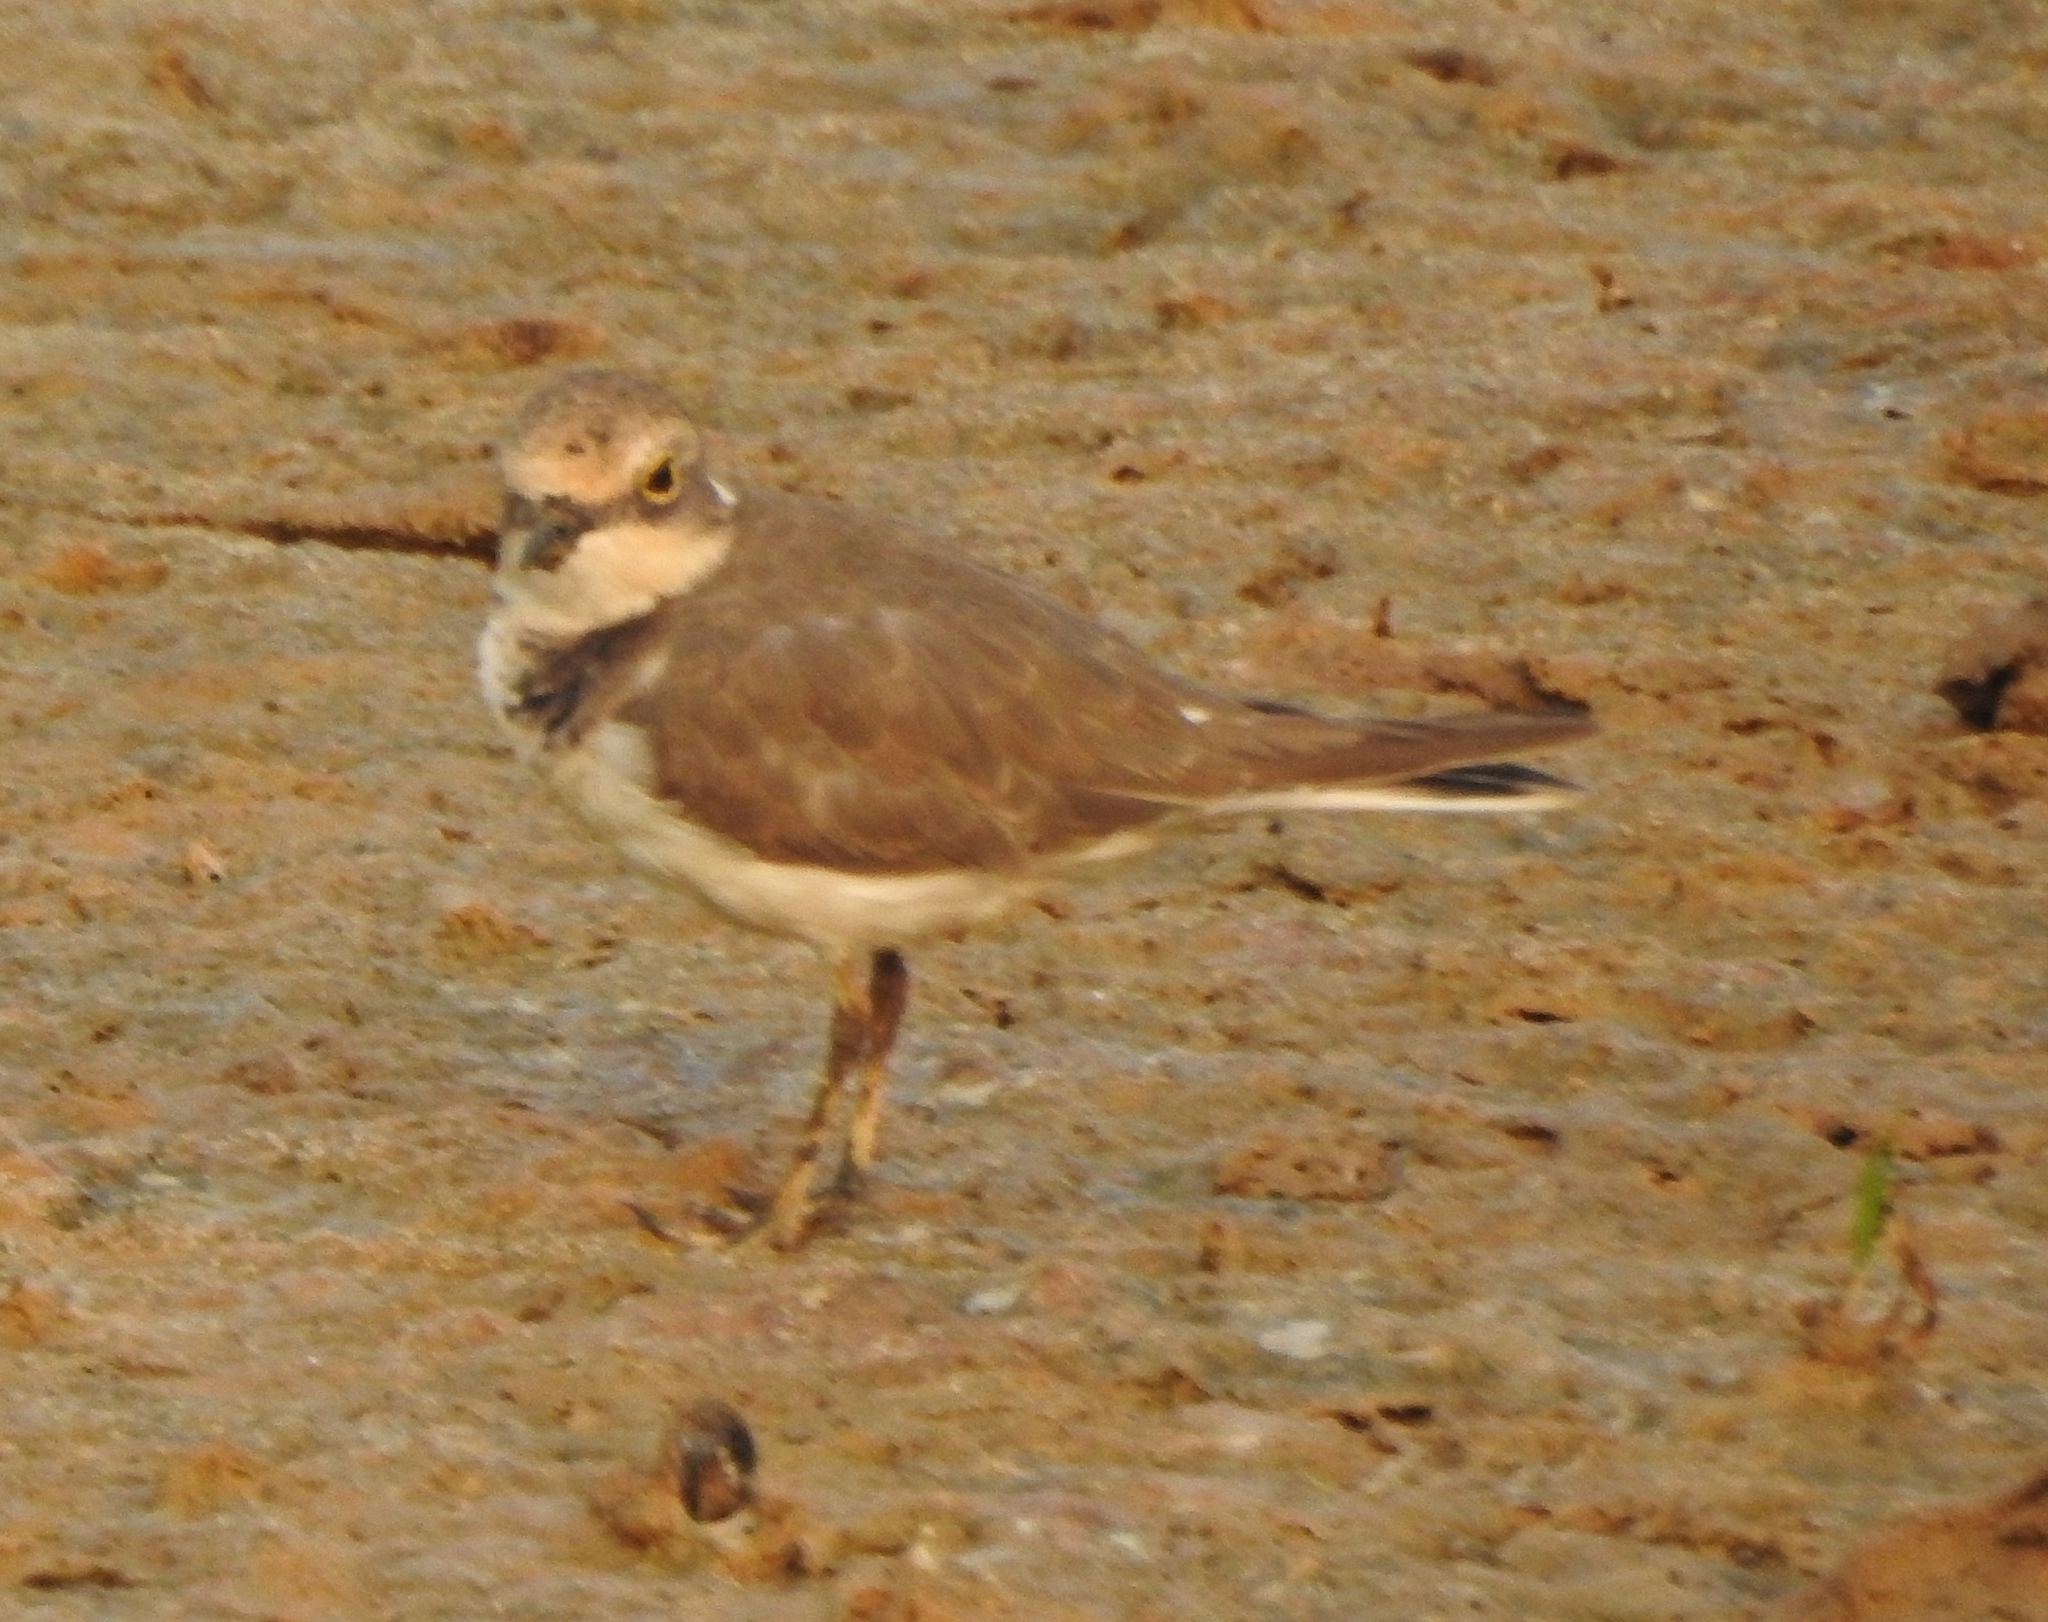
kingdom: Animalia
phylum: Chordata
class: Aves
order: Charadriiformes
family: Charadriidae
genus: Charadrius
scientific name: Charadrius dubius
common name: Little ringed plover
